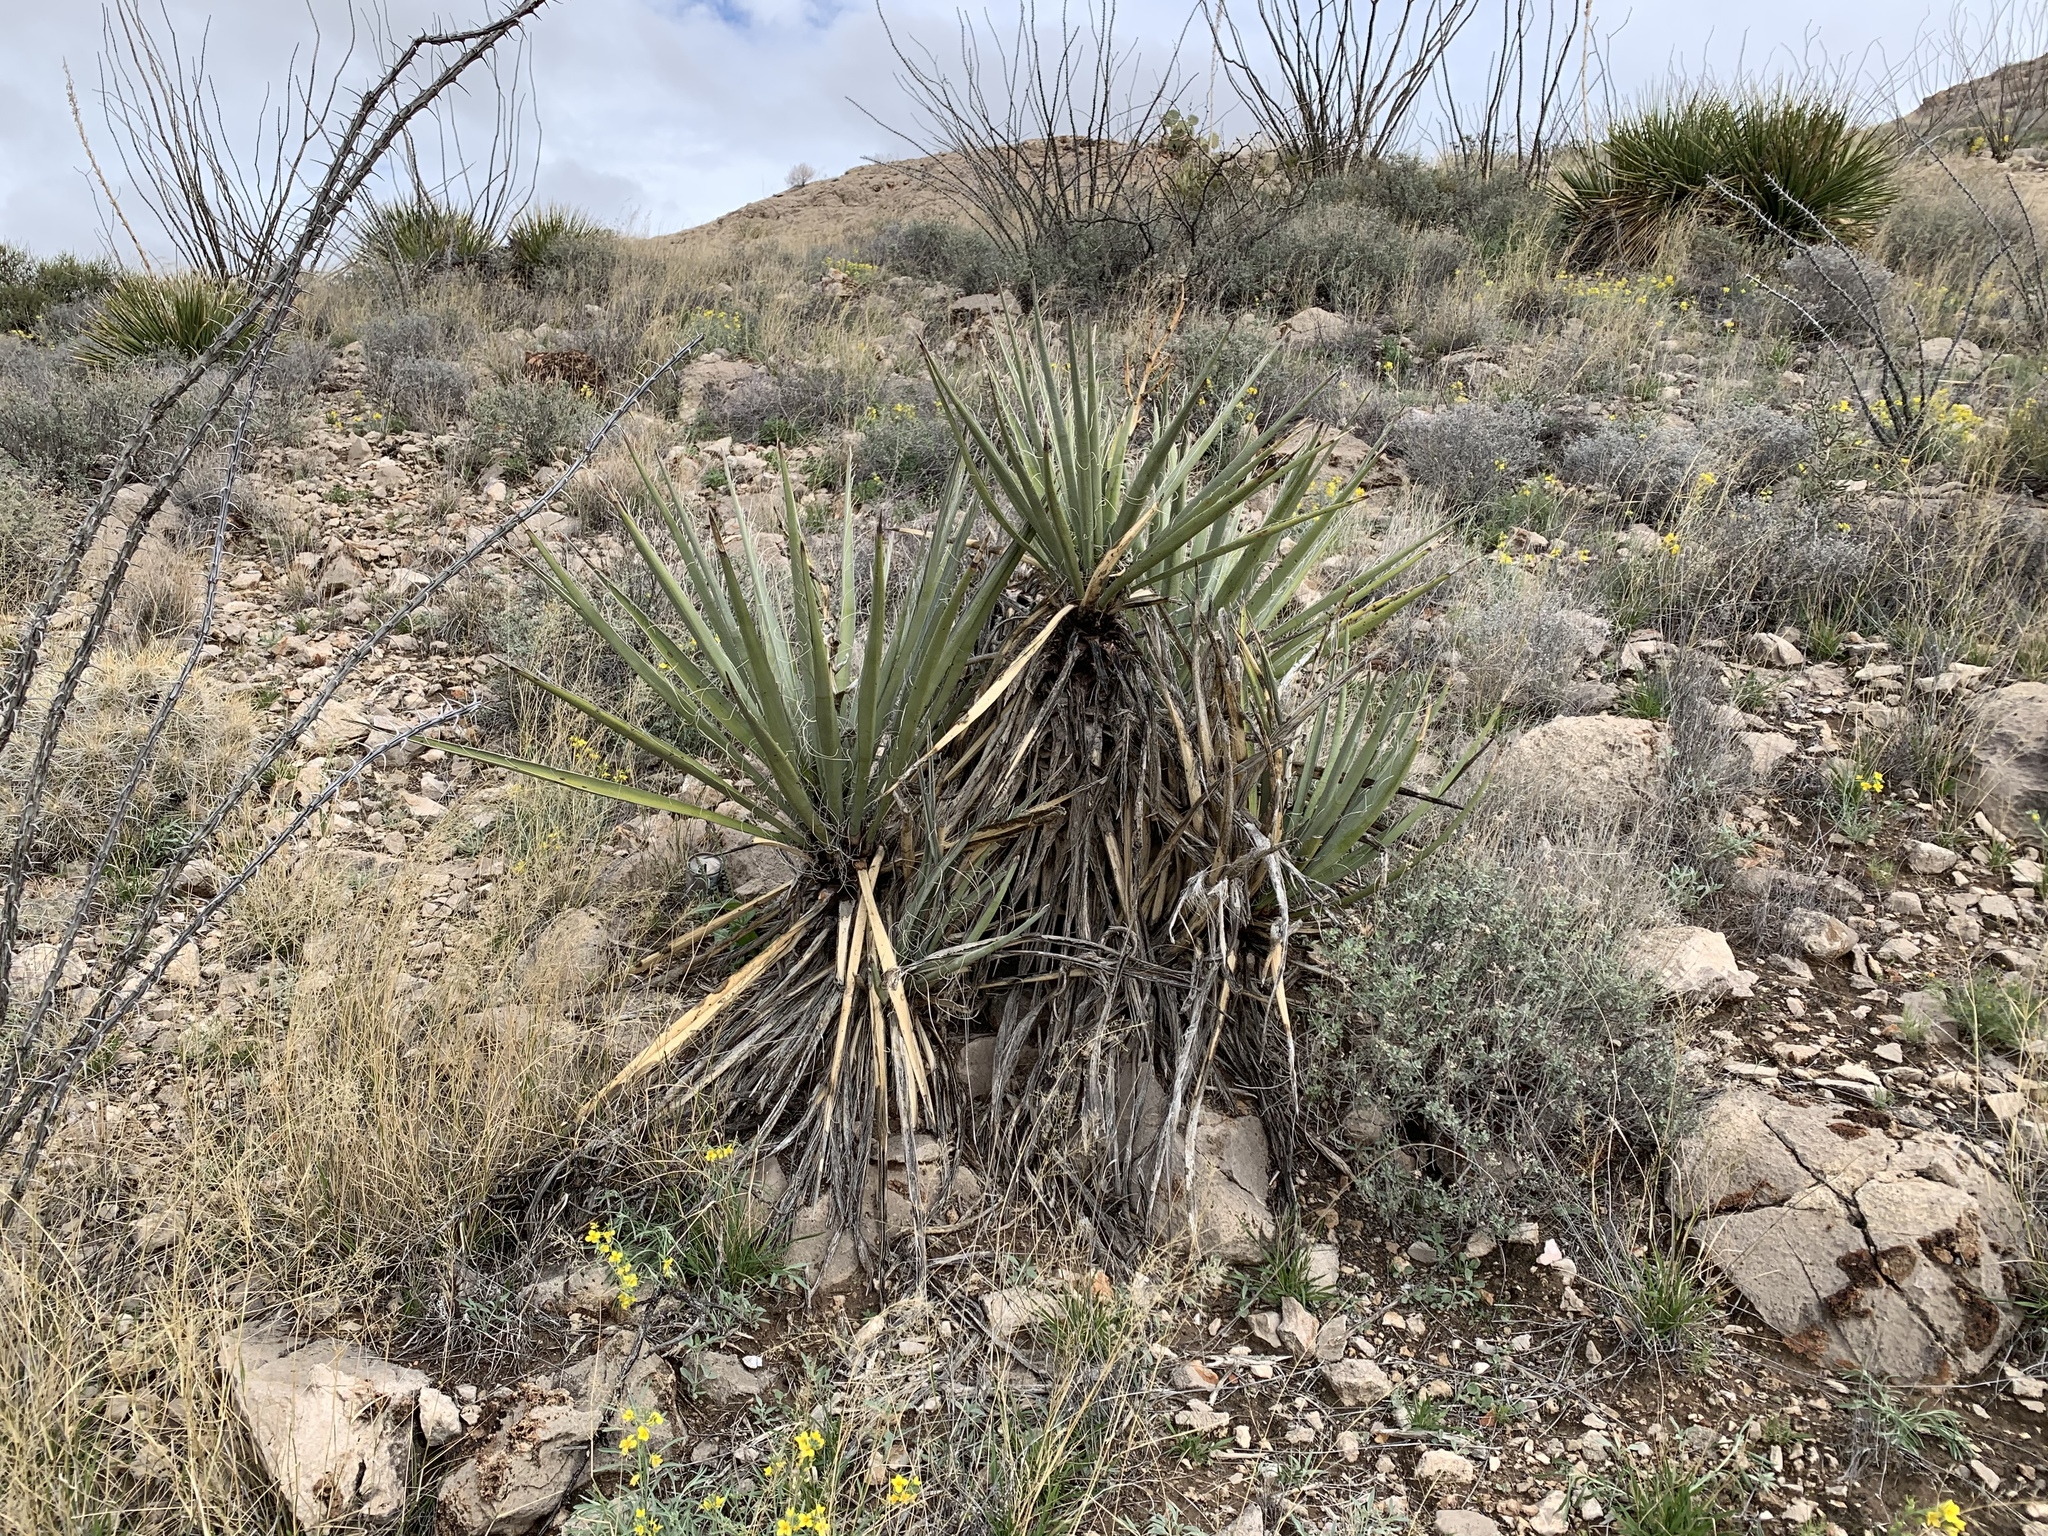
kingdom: Plantae
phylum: Tracheophyta
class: Liliopsida
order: Asparagales
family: Asparagaceae
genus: Yucca
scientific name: Yucca treculiana
